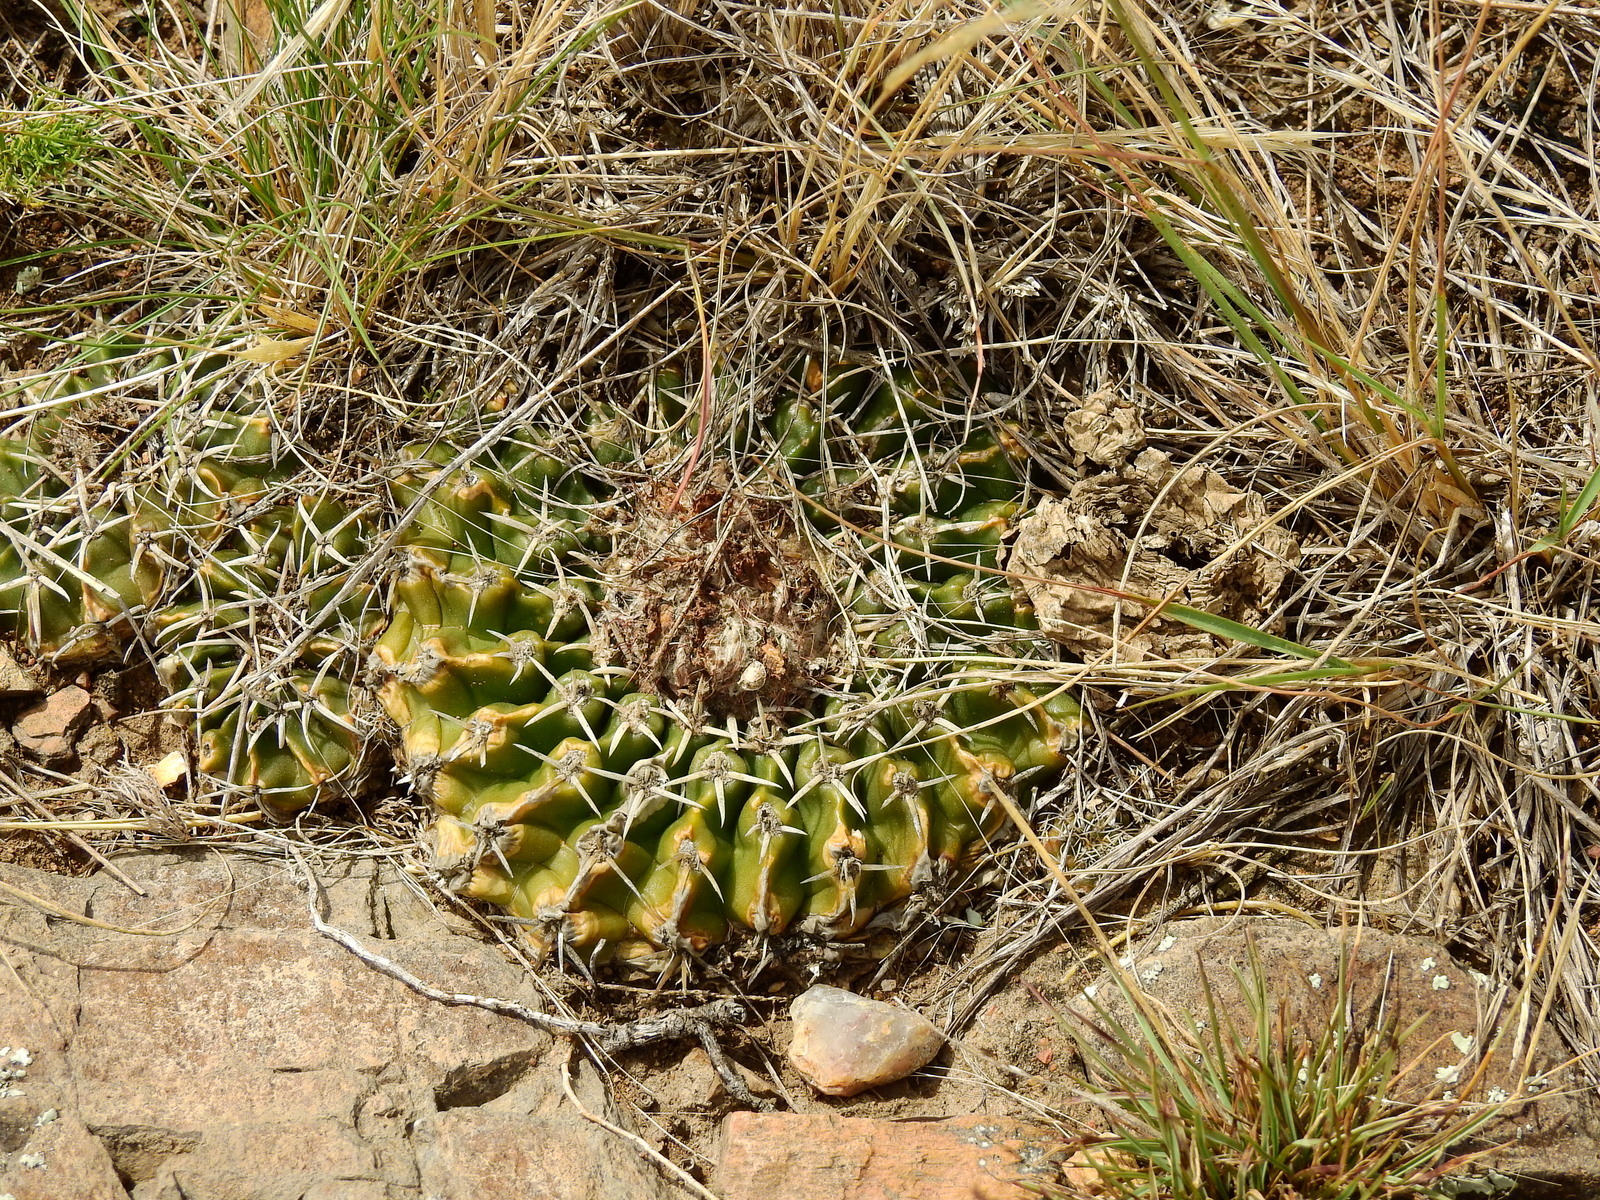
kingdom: Plantae
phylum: Tracheophyta
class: Magnoliopsida
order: Caryophyllales
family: Cactaceae
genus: Parodia
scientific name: Parodia erinacea
